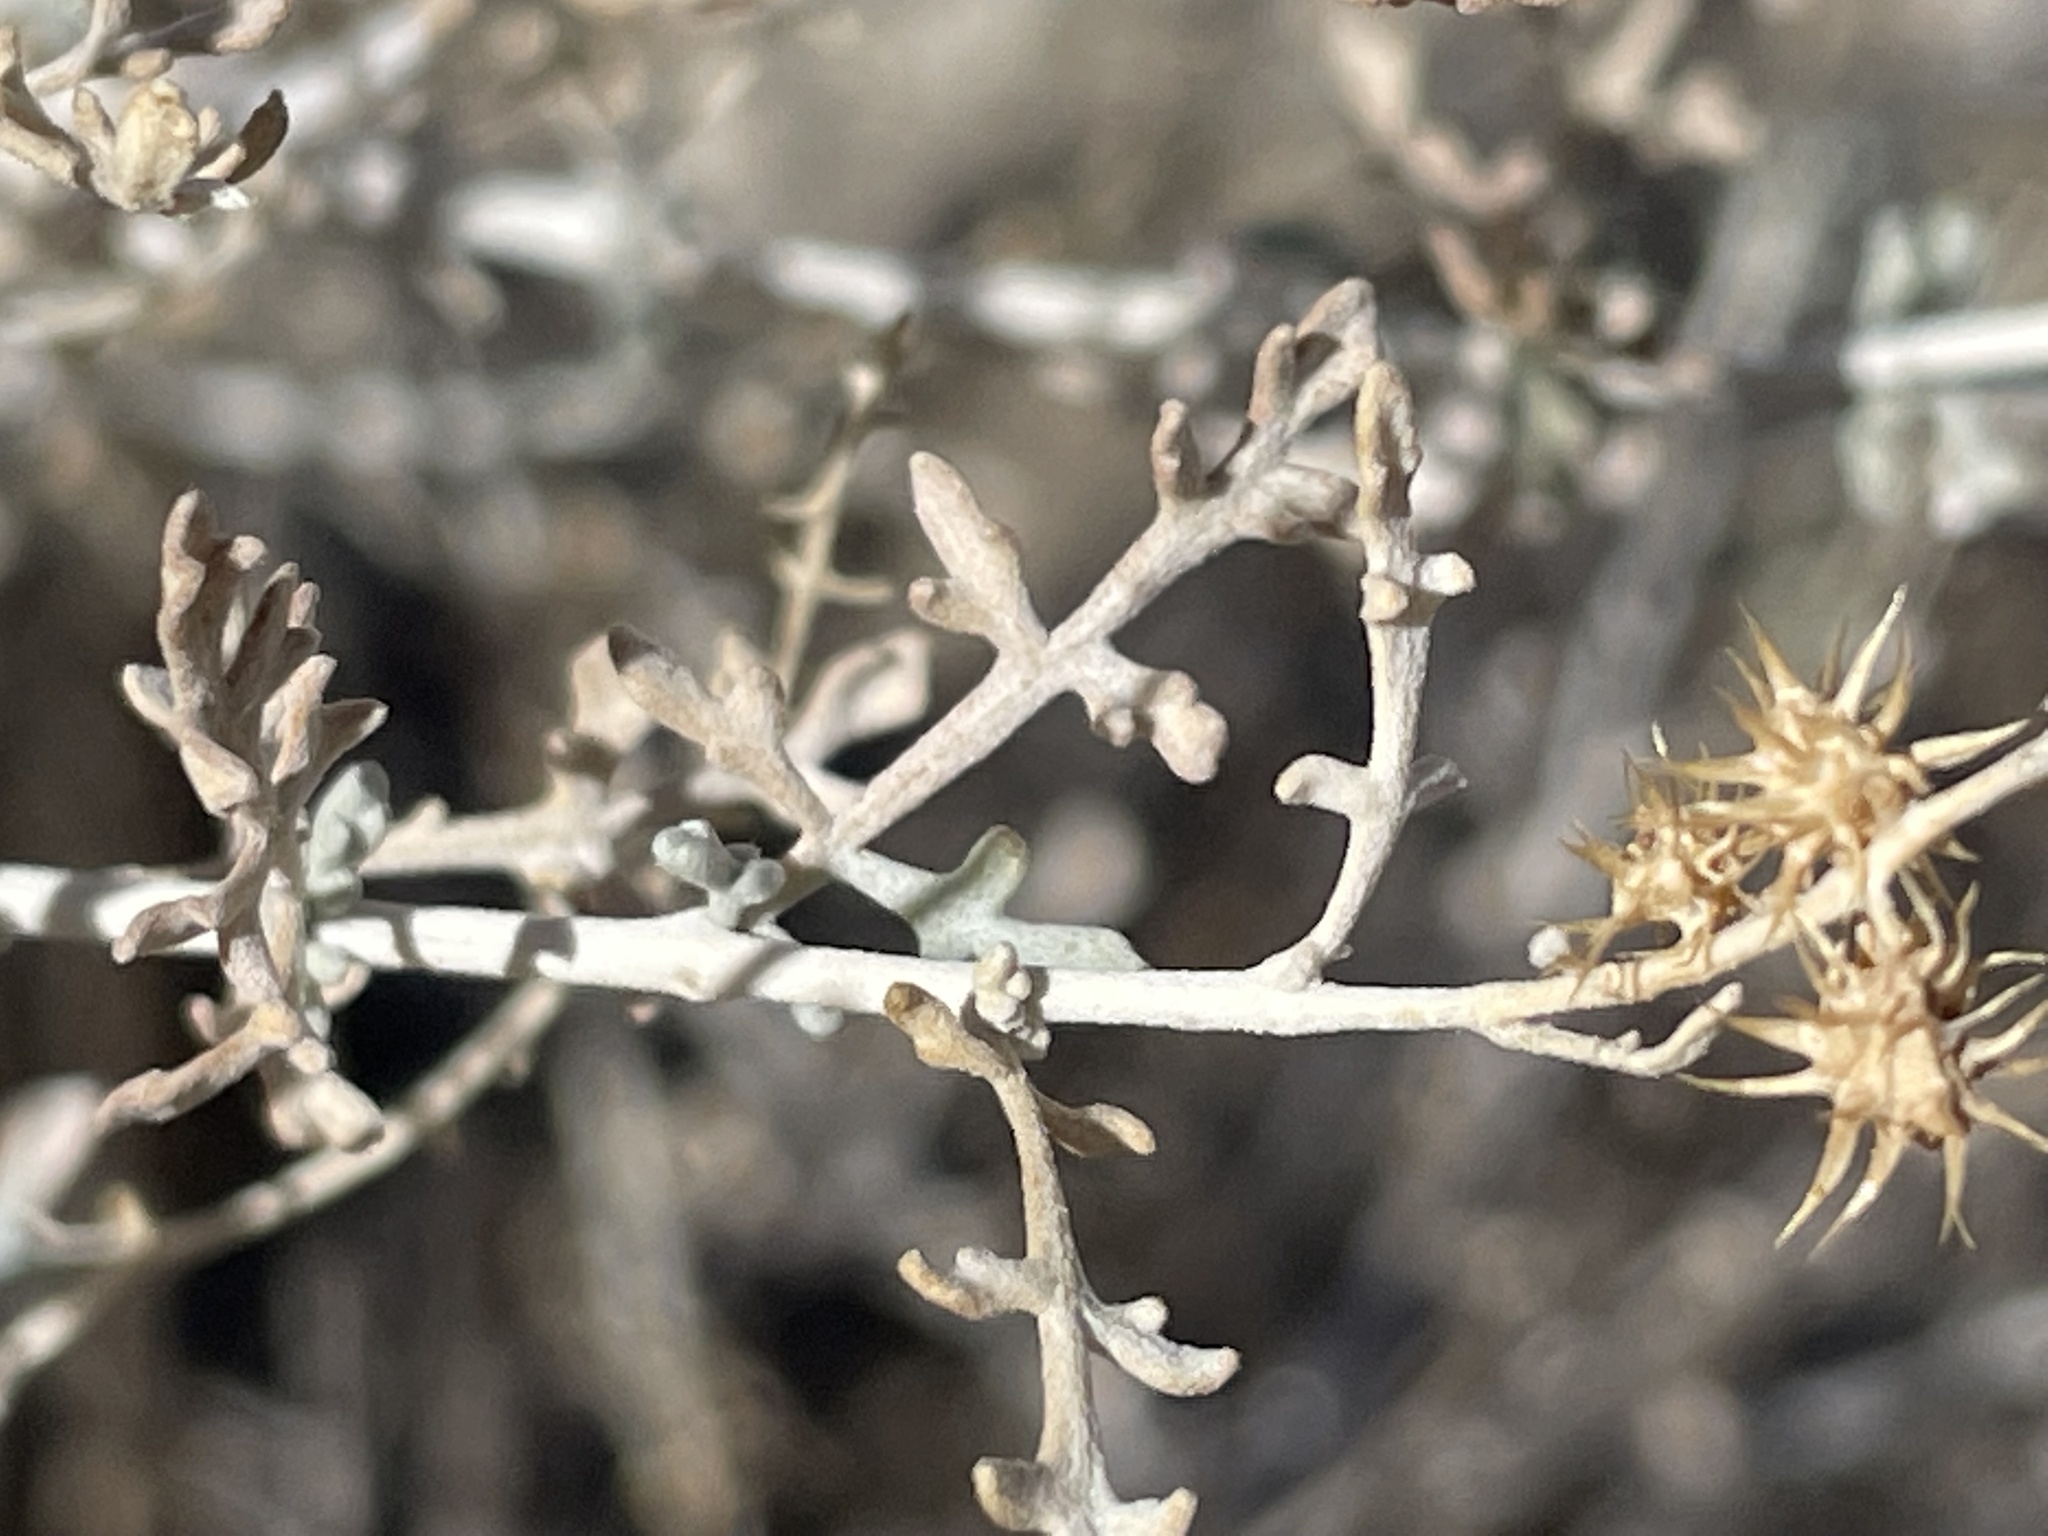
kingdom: Plantae
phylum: Tracheophyta
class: Magnoliopsida
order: Asterales
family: Asteraceae
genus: Ambrosia
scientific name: Ambrosia dumosa
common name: Bur-sage
